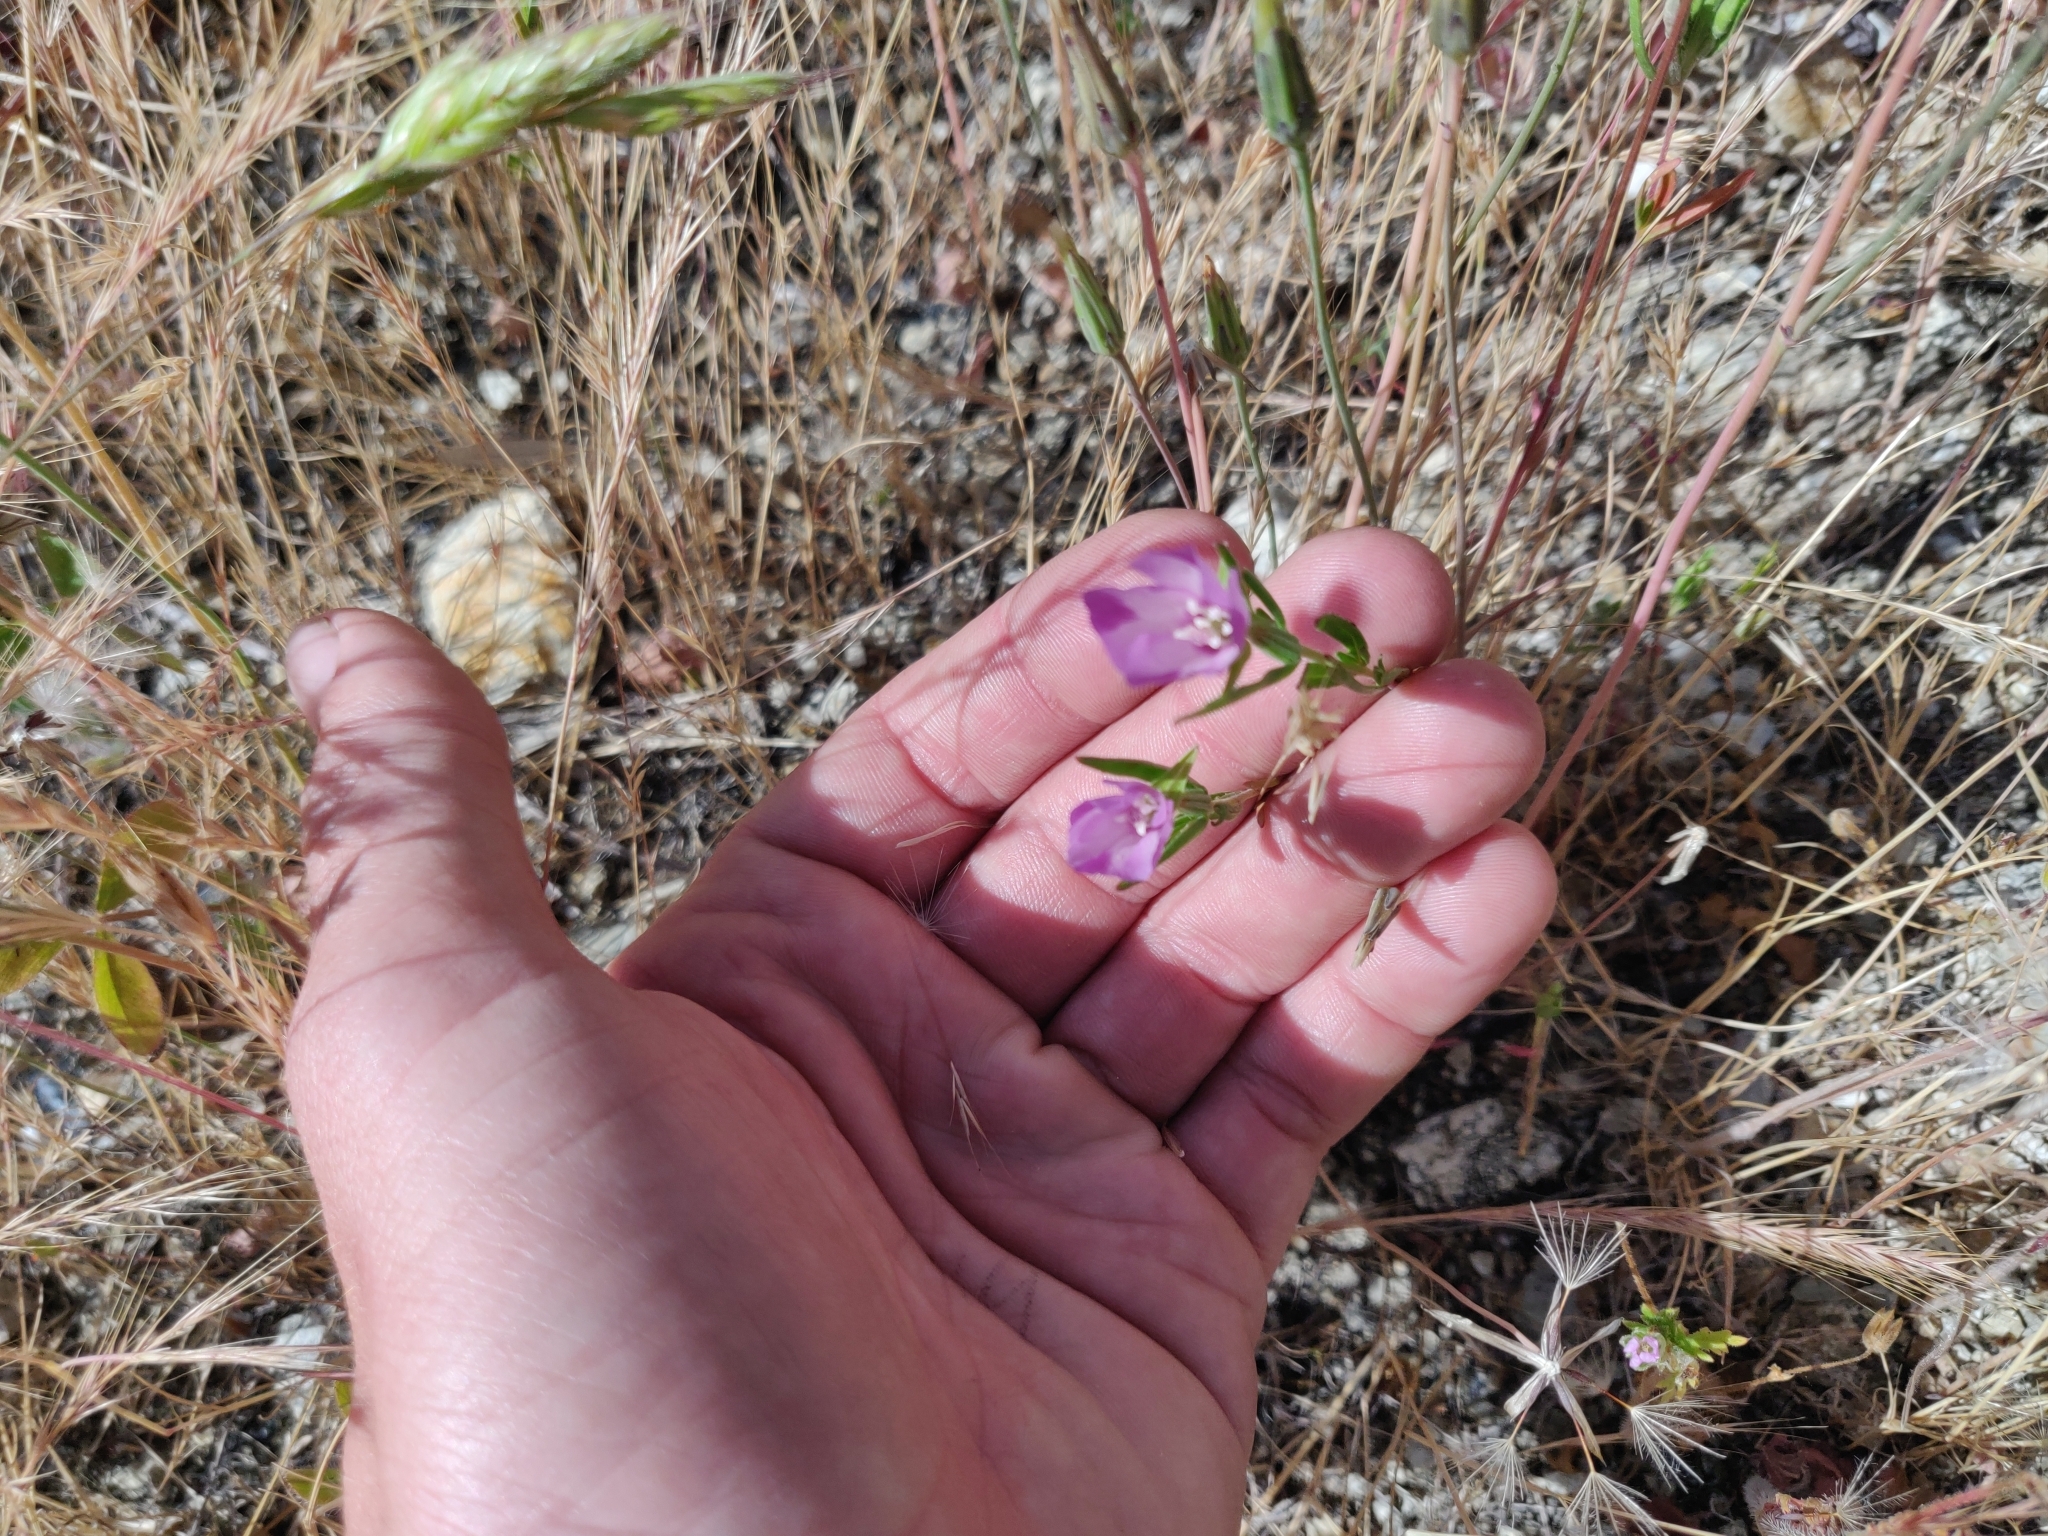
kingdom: Plantae
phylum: Tracheophyta
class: Magnoliopsida
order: Myrtales
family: Onagraceae
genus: Clarkia
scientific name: Clarkia purpurea
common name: Purple clarkia
